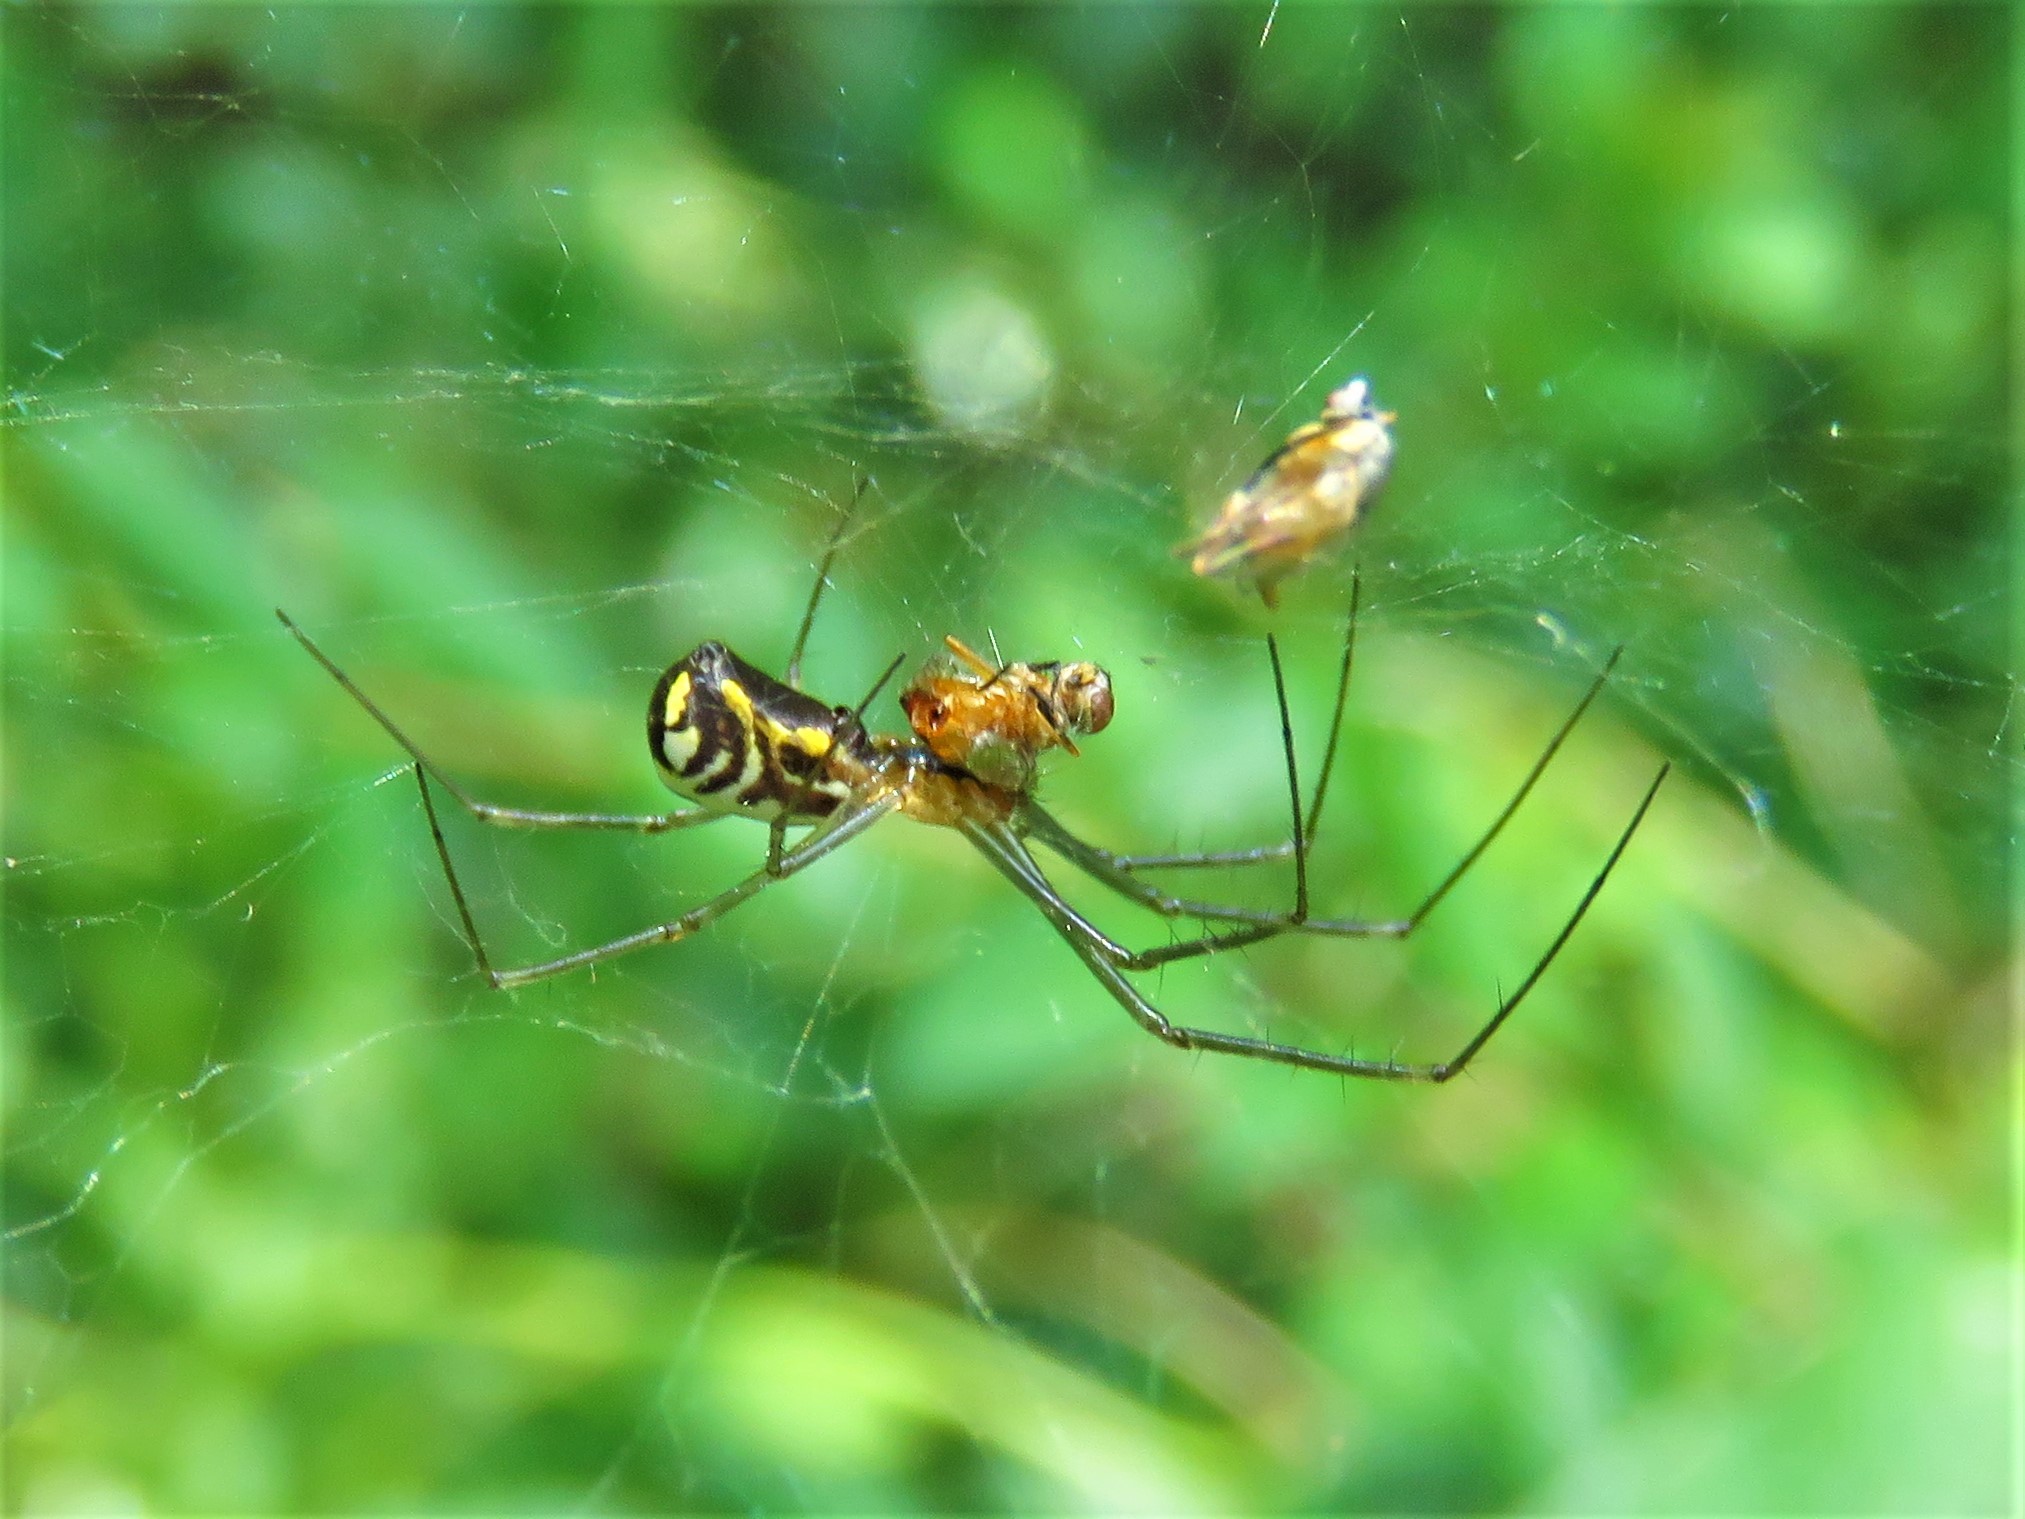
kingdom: Animalia
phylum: Arthropoda
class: Arachnida
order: Araneae
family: Linyphiidae
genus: Neriene
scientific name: Neriene radiata
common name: Filmy dome spider
